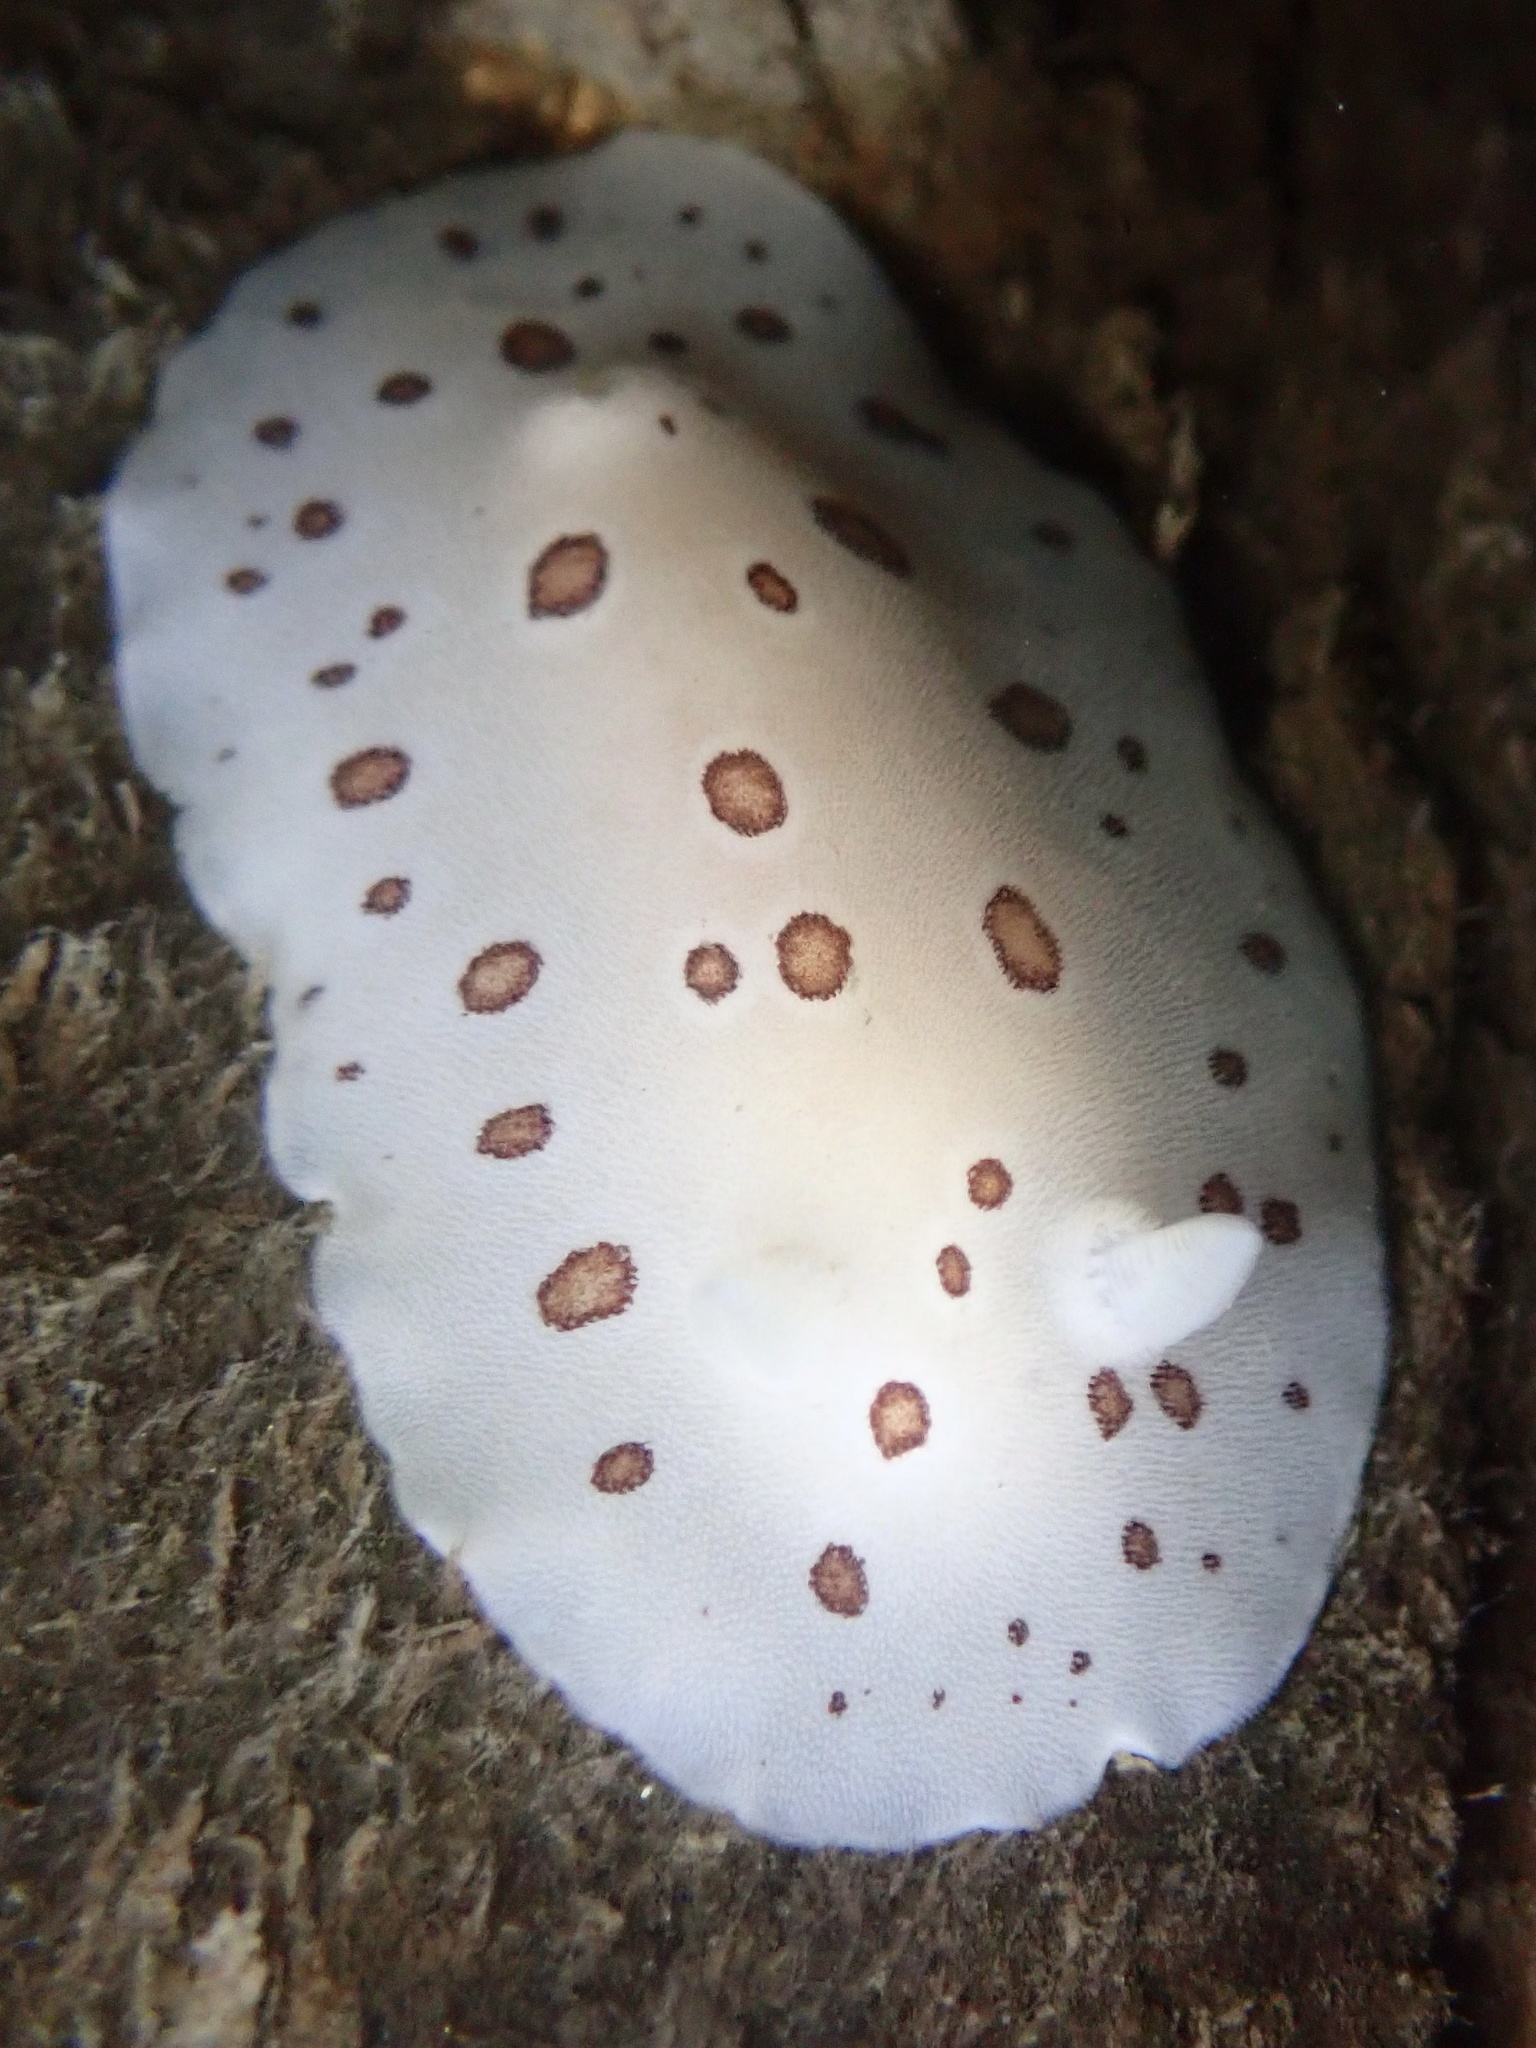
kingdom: Animalia
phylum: Mollusca
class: Gastropoda
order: Nudibranchia
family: Discodorididae
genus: Diaulula
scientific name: Diaulula odonoghuei
